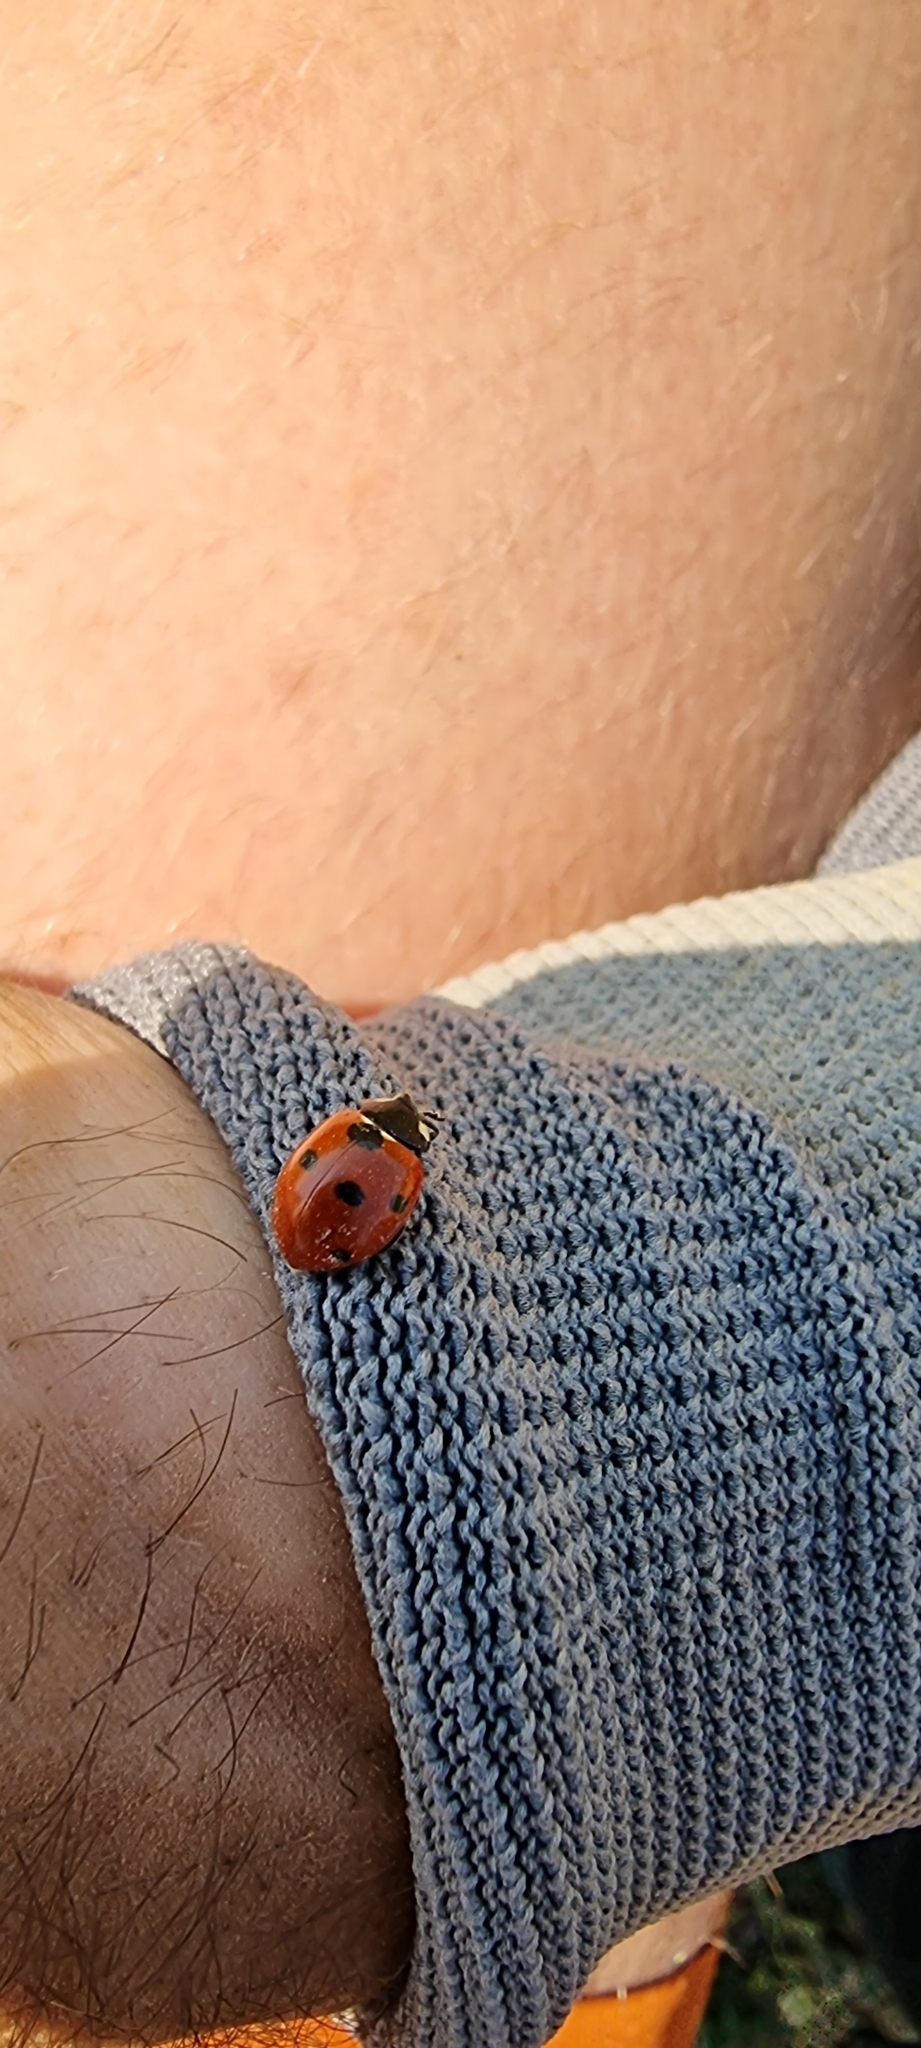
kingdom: Animalia
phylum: Arthropoda
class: Insecta
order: Coleoptera
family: Coccinellidae
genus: Coccinella
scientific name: Coccinella septempunctata
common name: Sevenspotted lady beetle
